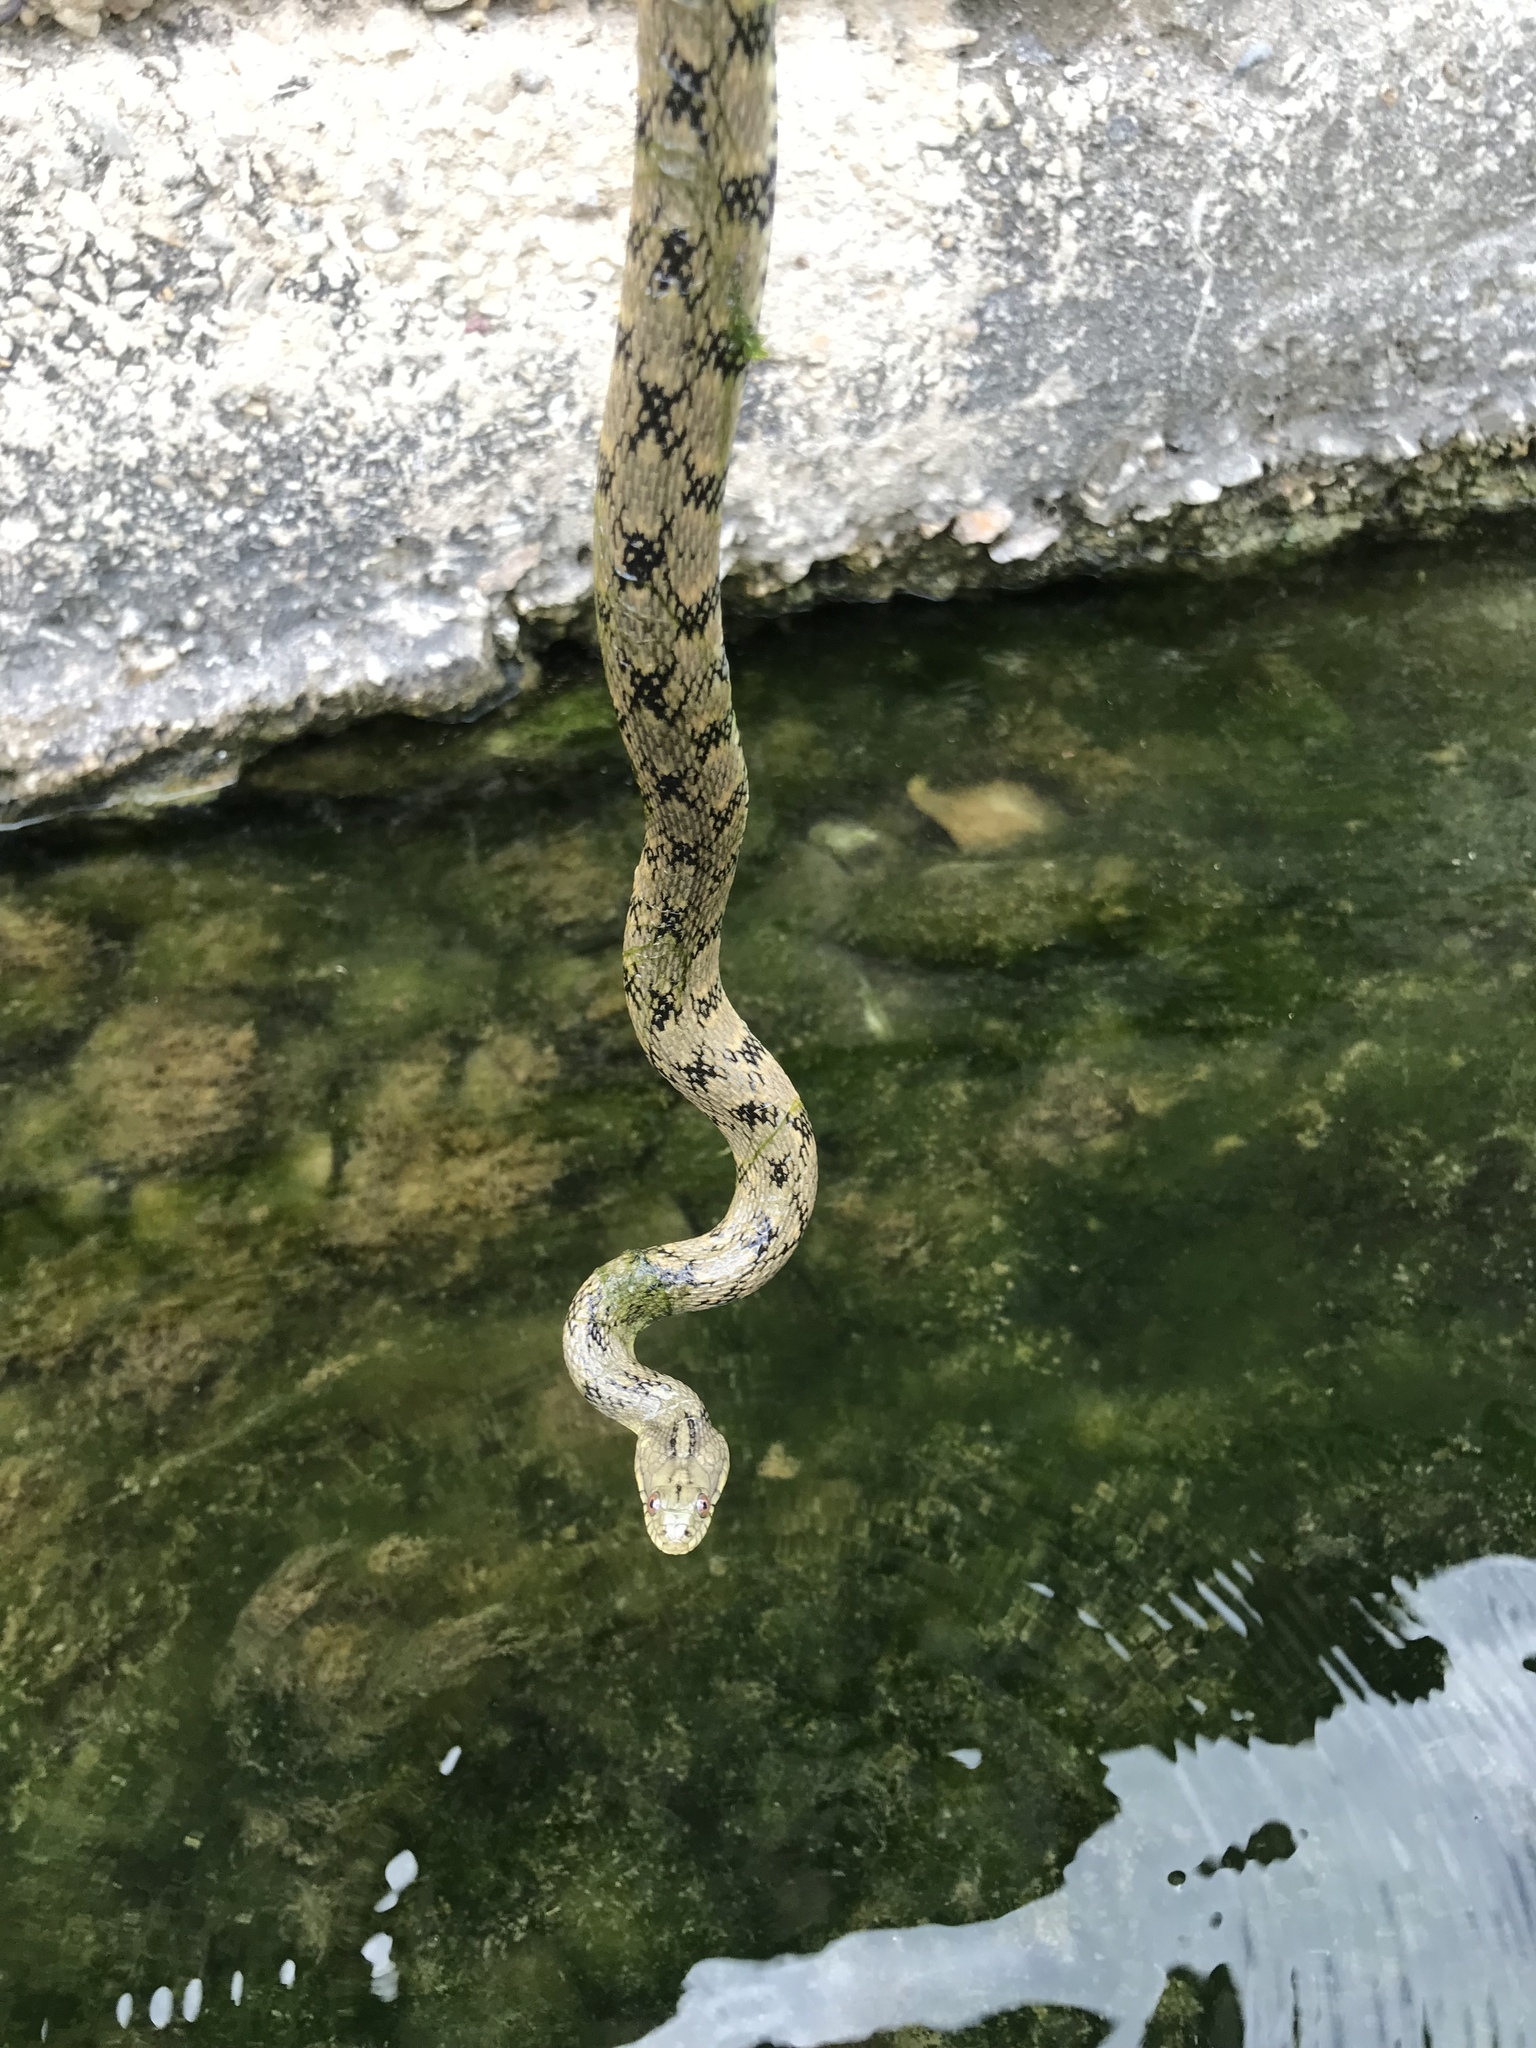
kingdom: Animalia
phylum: Chordata
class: Squamata
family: Colubridae
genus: Nerodia
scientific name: Nerodia rhombifer
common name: Diamondback water snake
